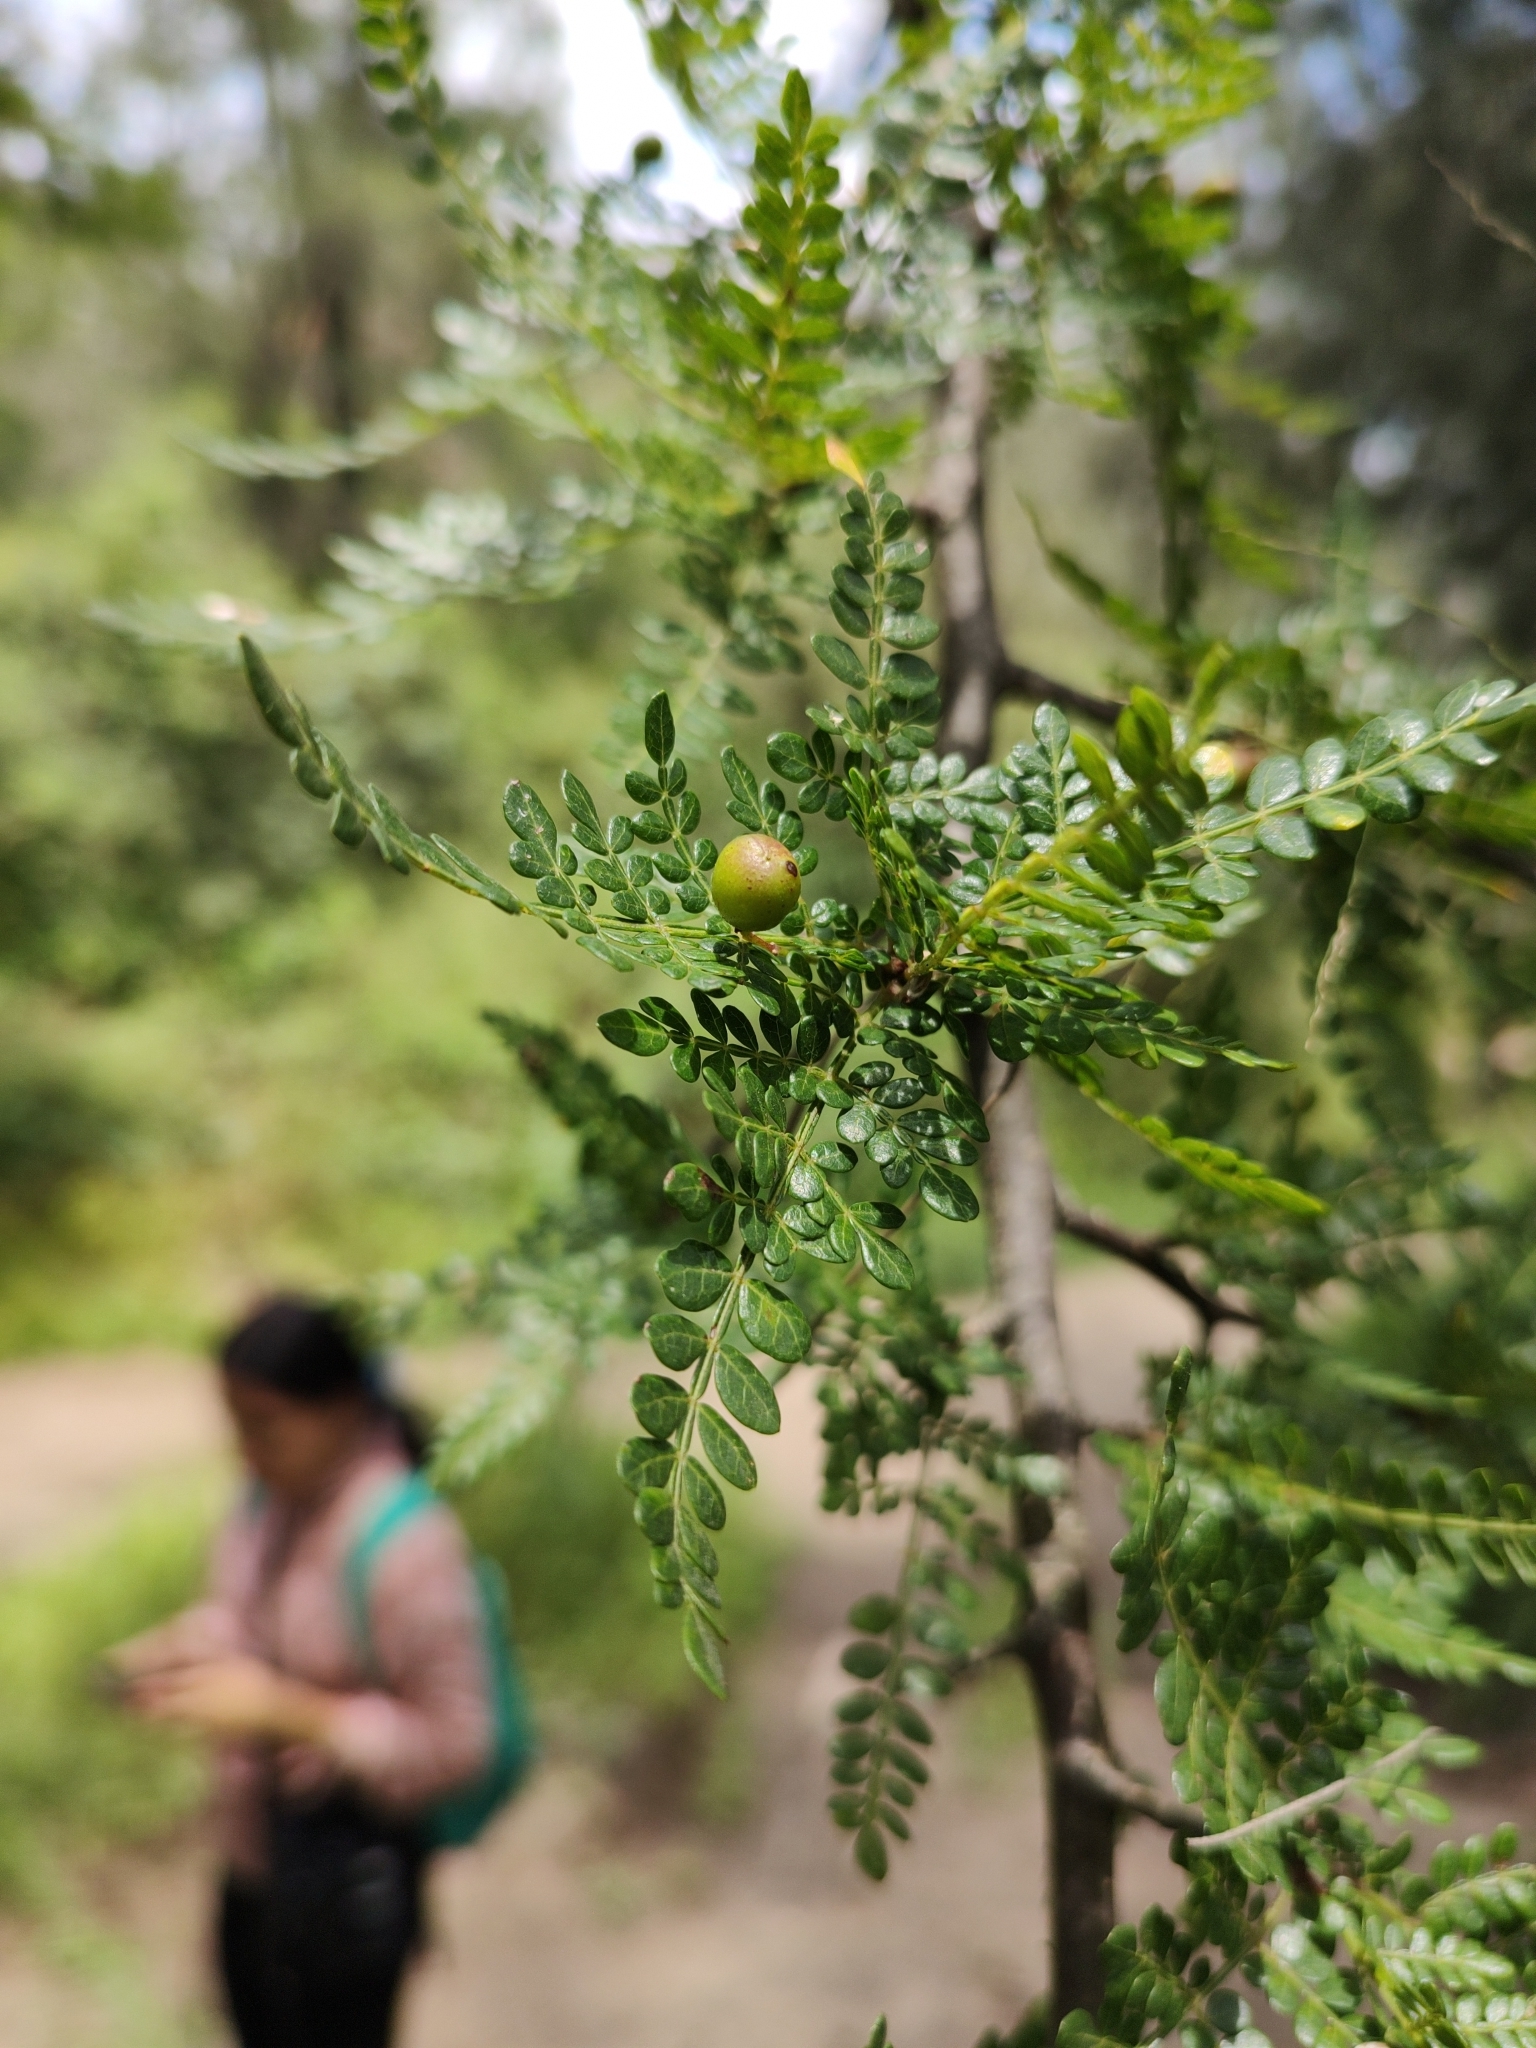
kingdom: Plantae
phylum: Tracheophyta
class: Magnoliopsida
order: Sapindales
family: Burseraceae
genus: Bursera
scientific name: Bursera bipinnata
